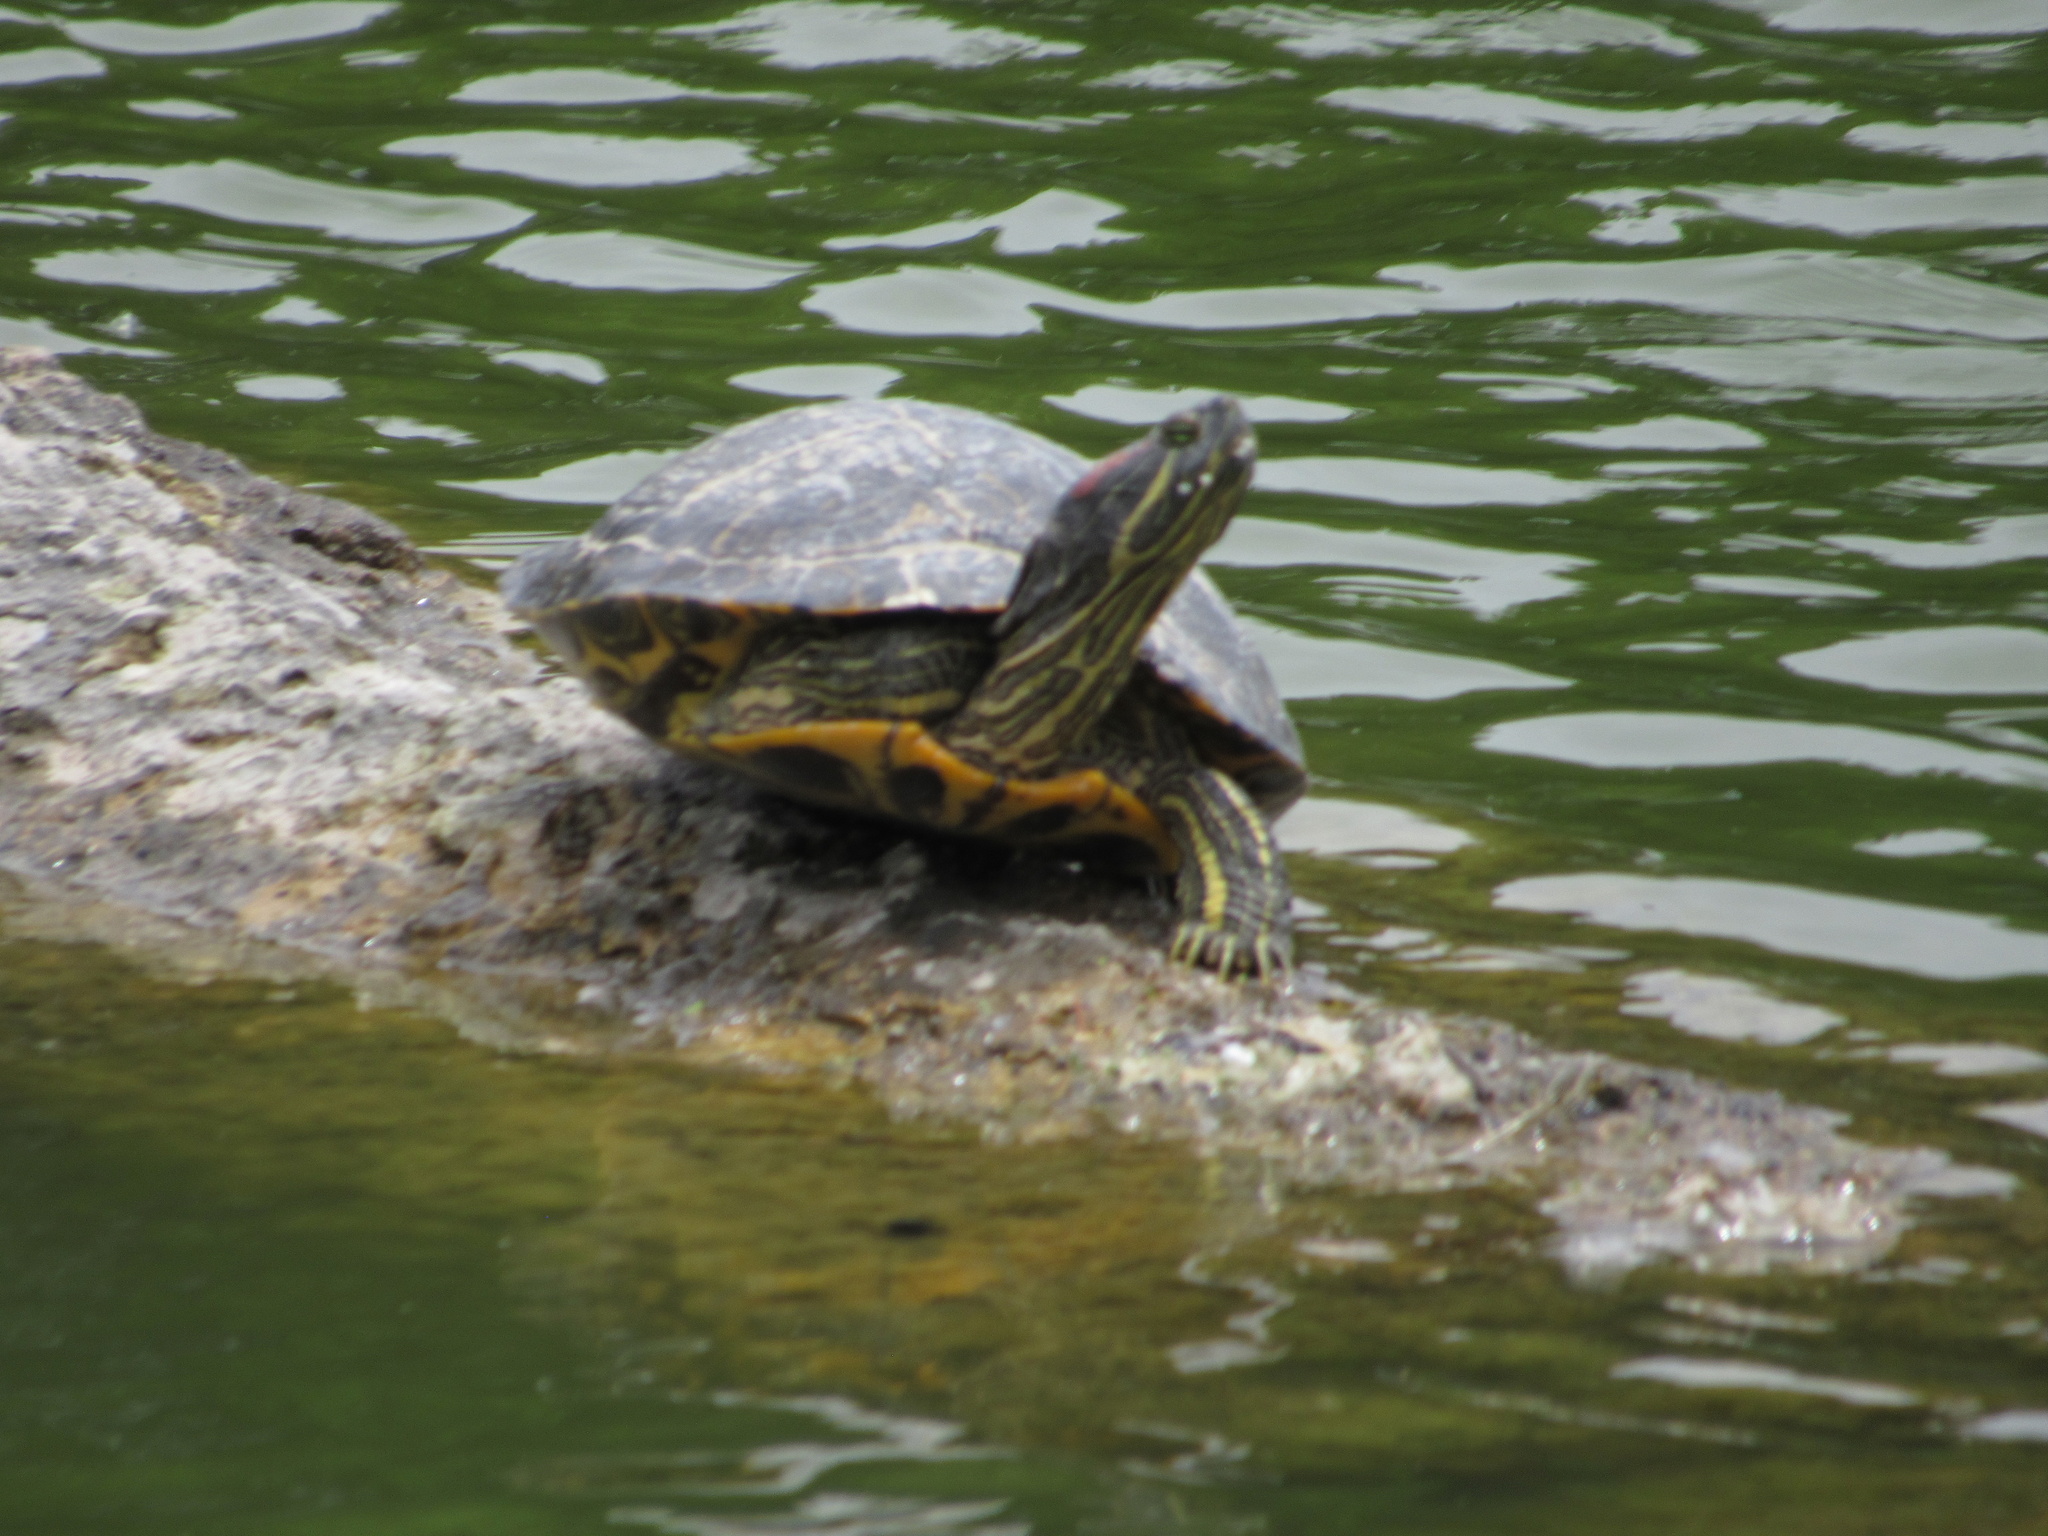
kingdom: Animalia
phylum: Chordata
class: Testudines
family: Emydidae
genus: Trachemys
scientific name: Trachemys scripta
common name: Slider
